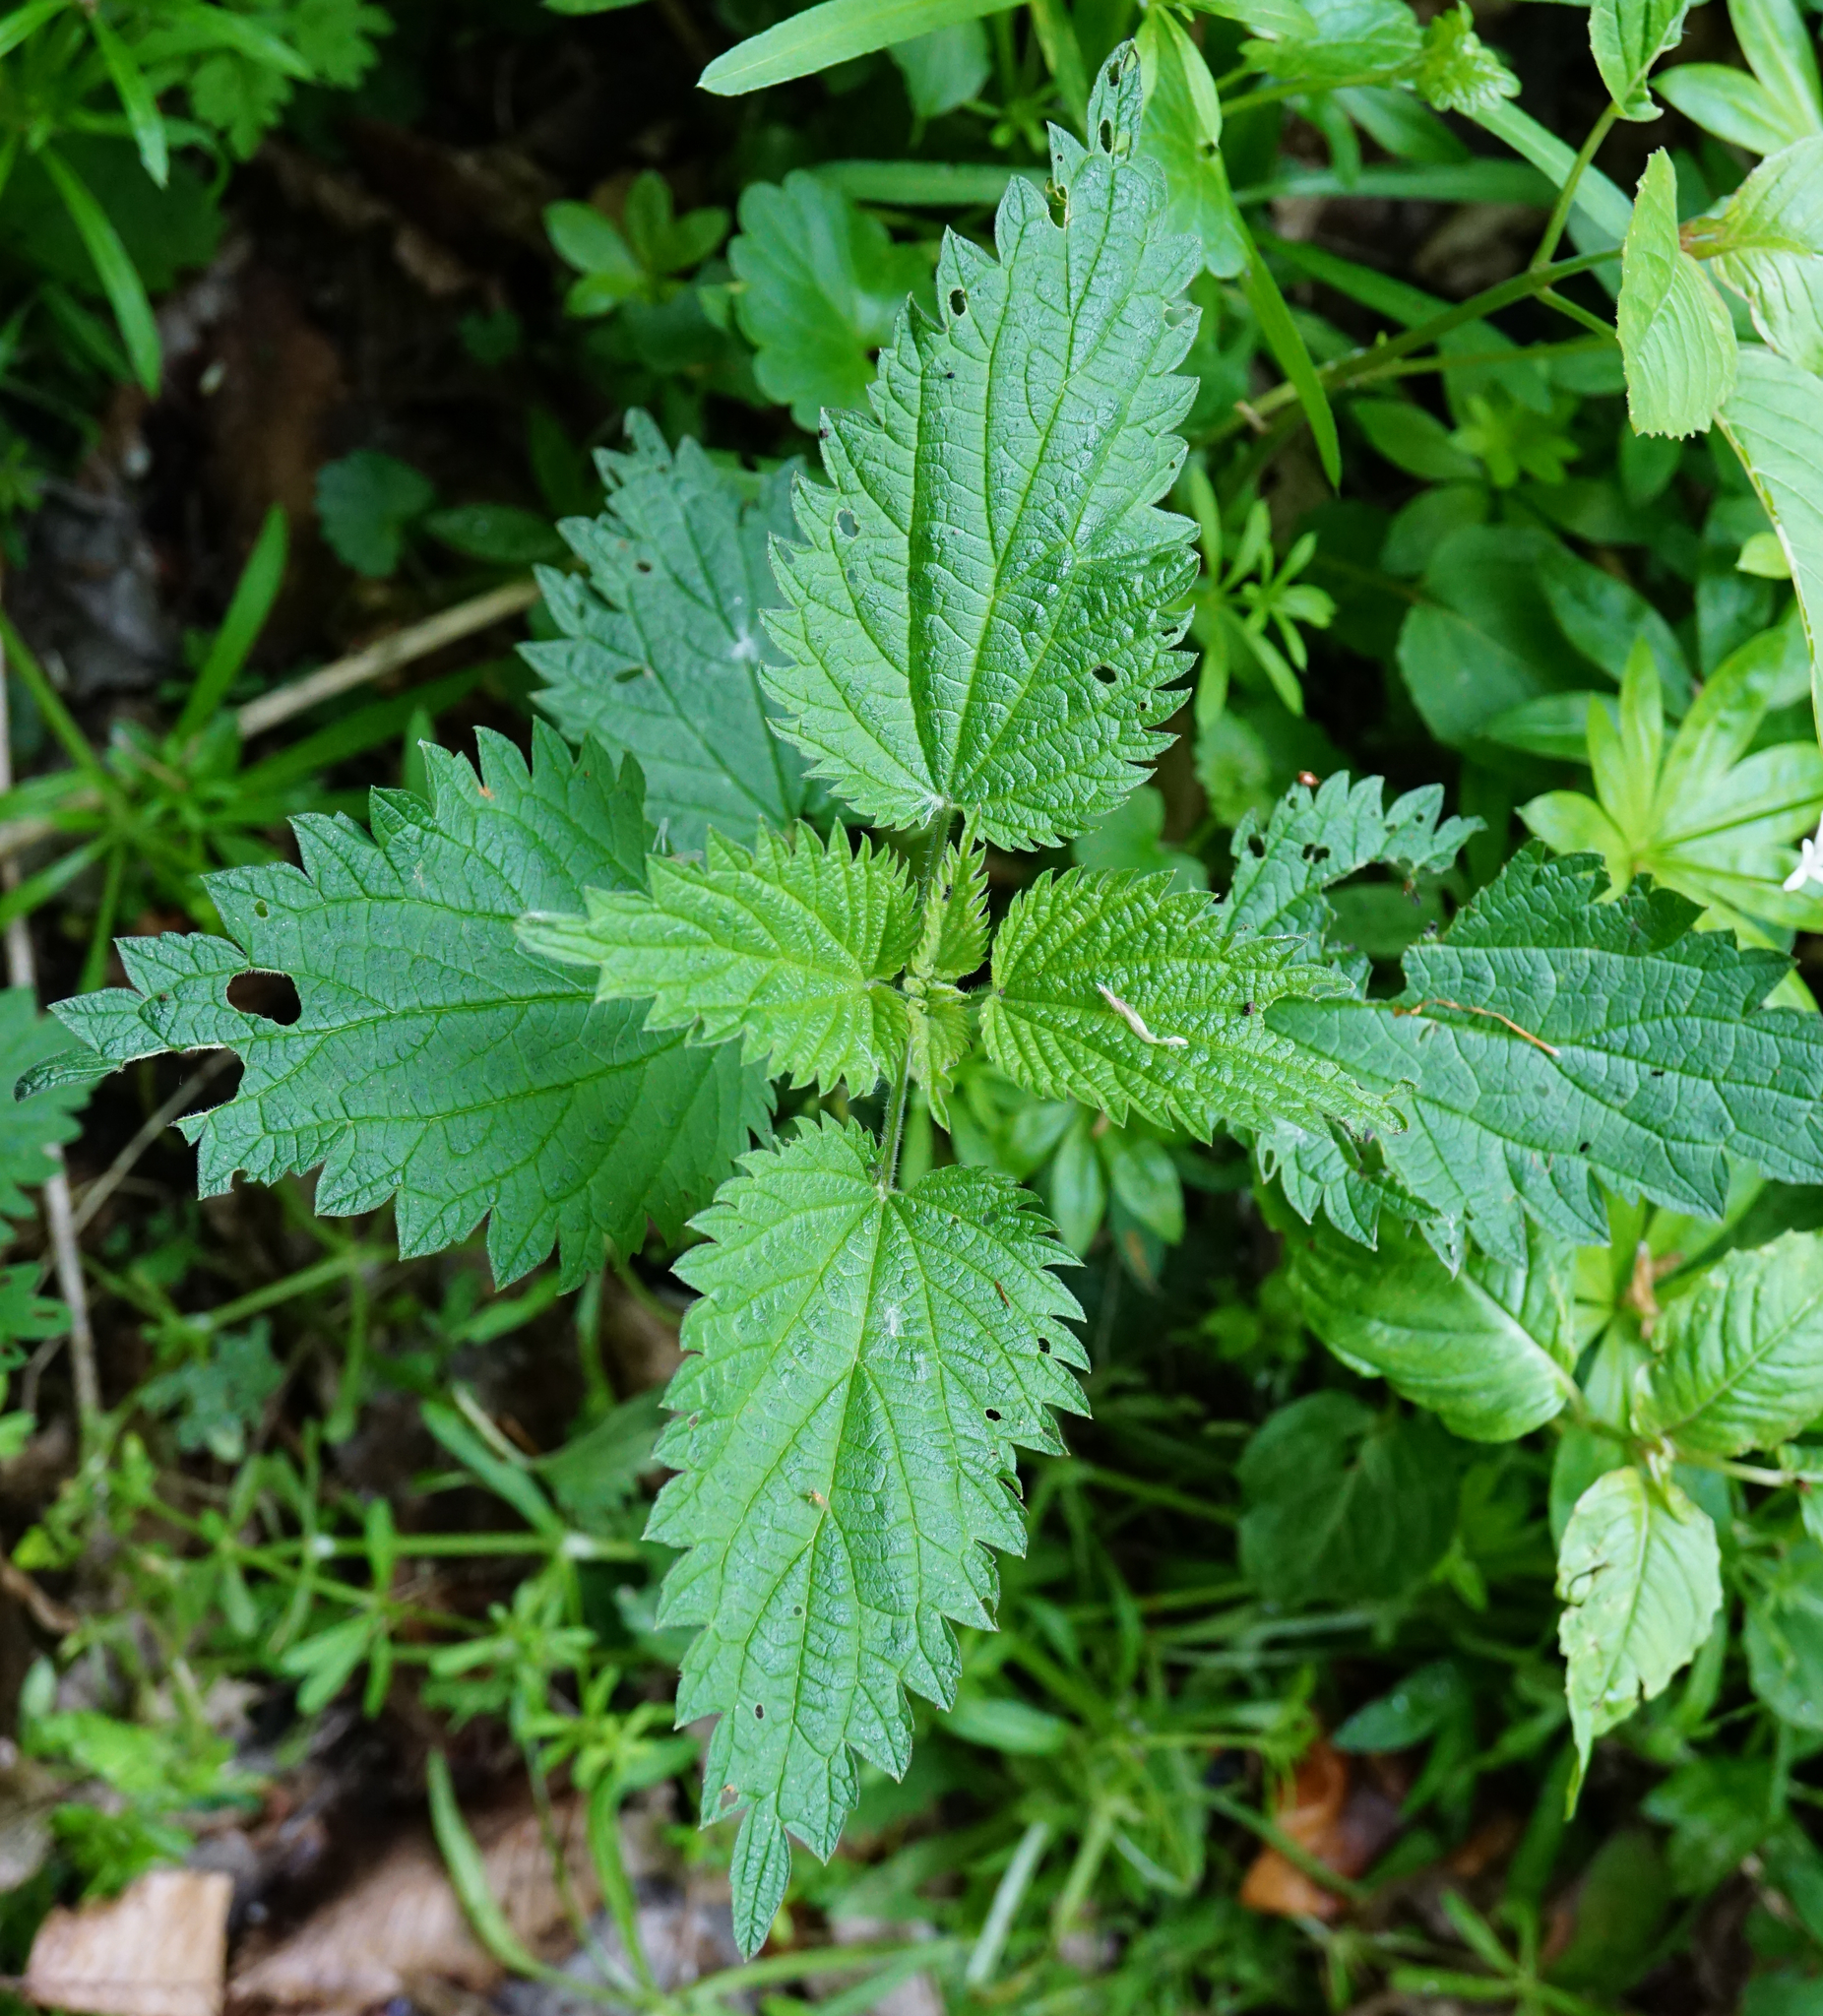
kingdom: Plantae
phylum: Tracheophyta
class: Magnoliopsida
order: Rosales
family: Urticaceae
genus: Urtica
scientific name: Urtica dioica
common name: Common nettle
